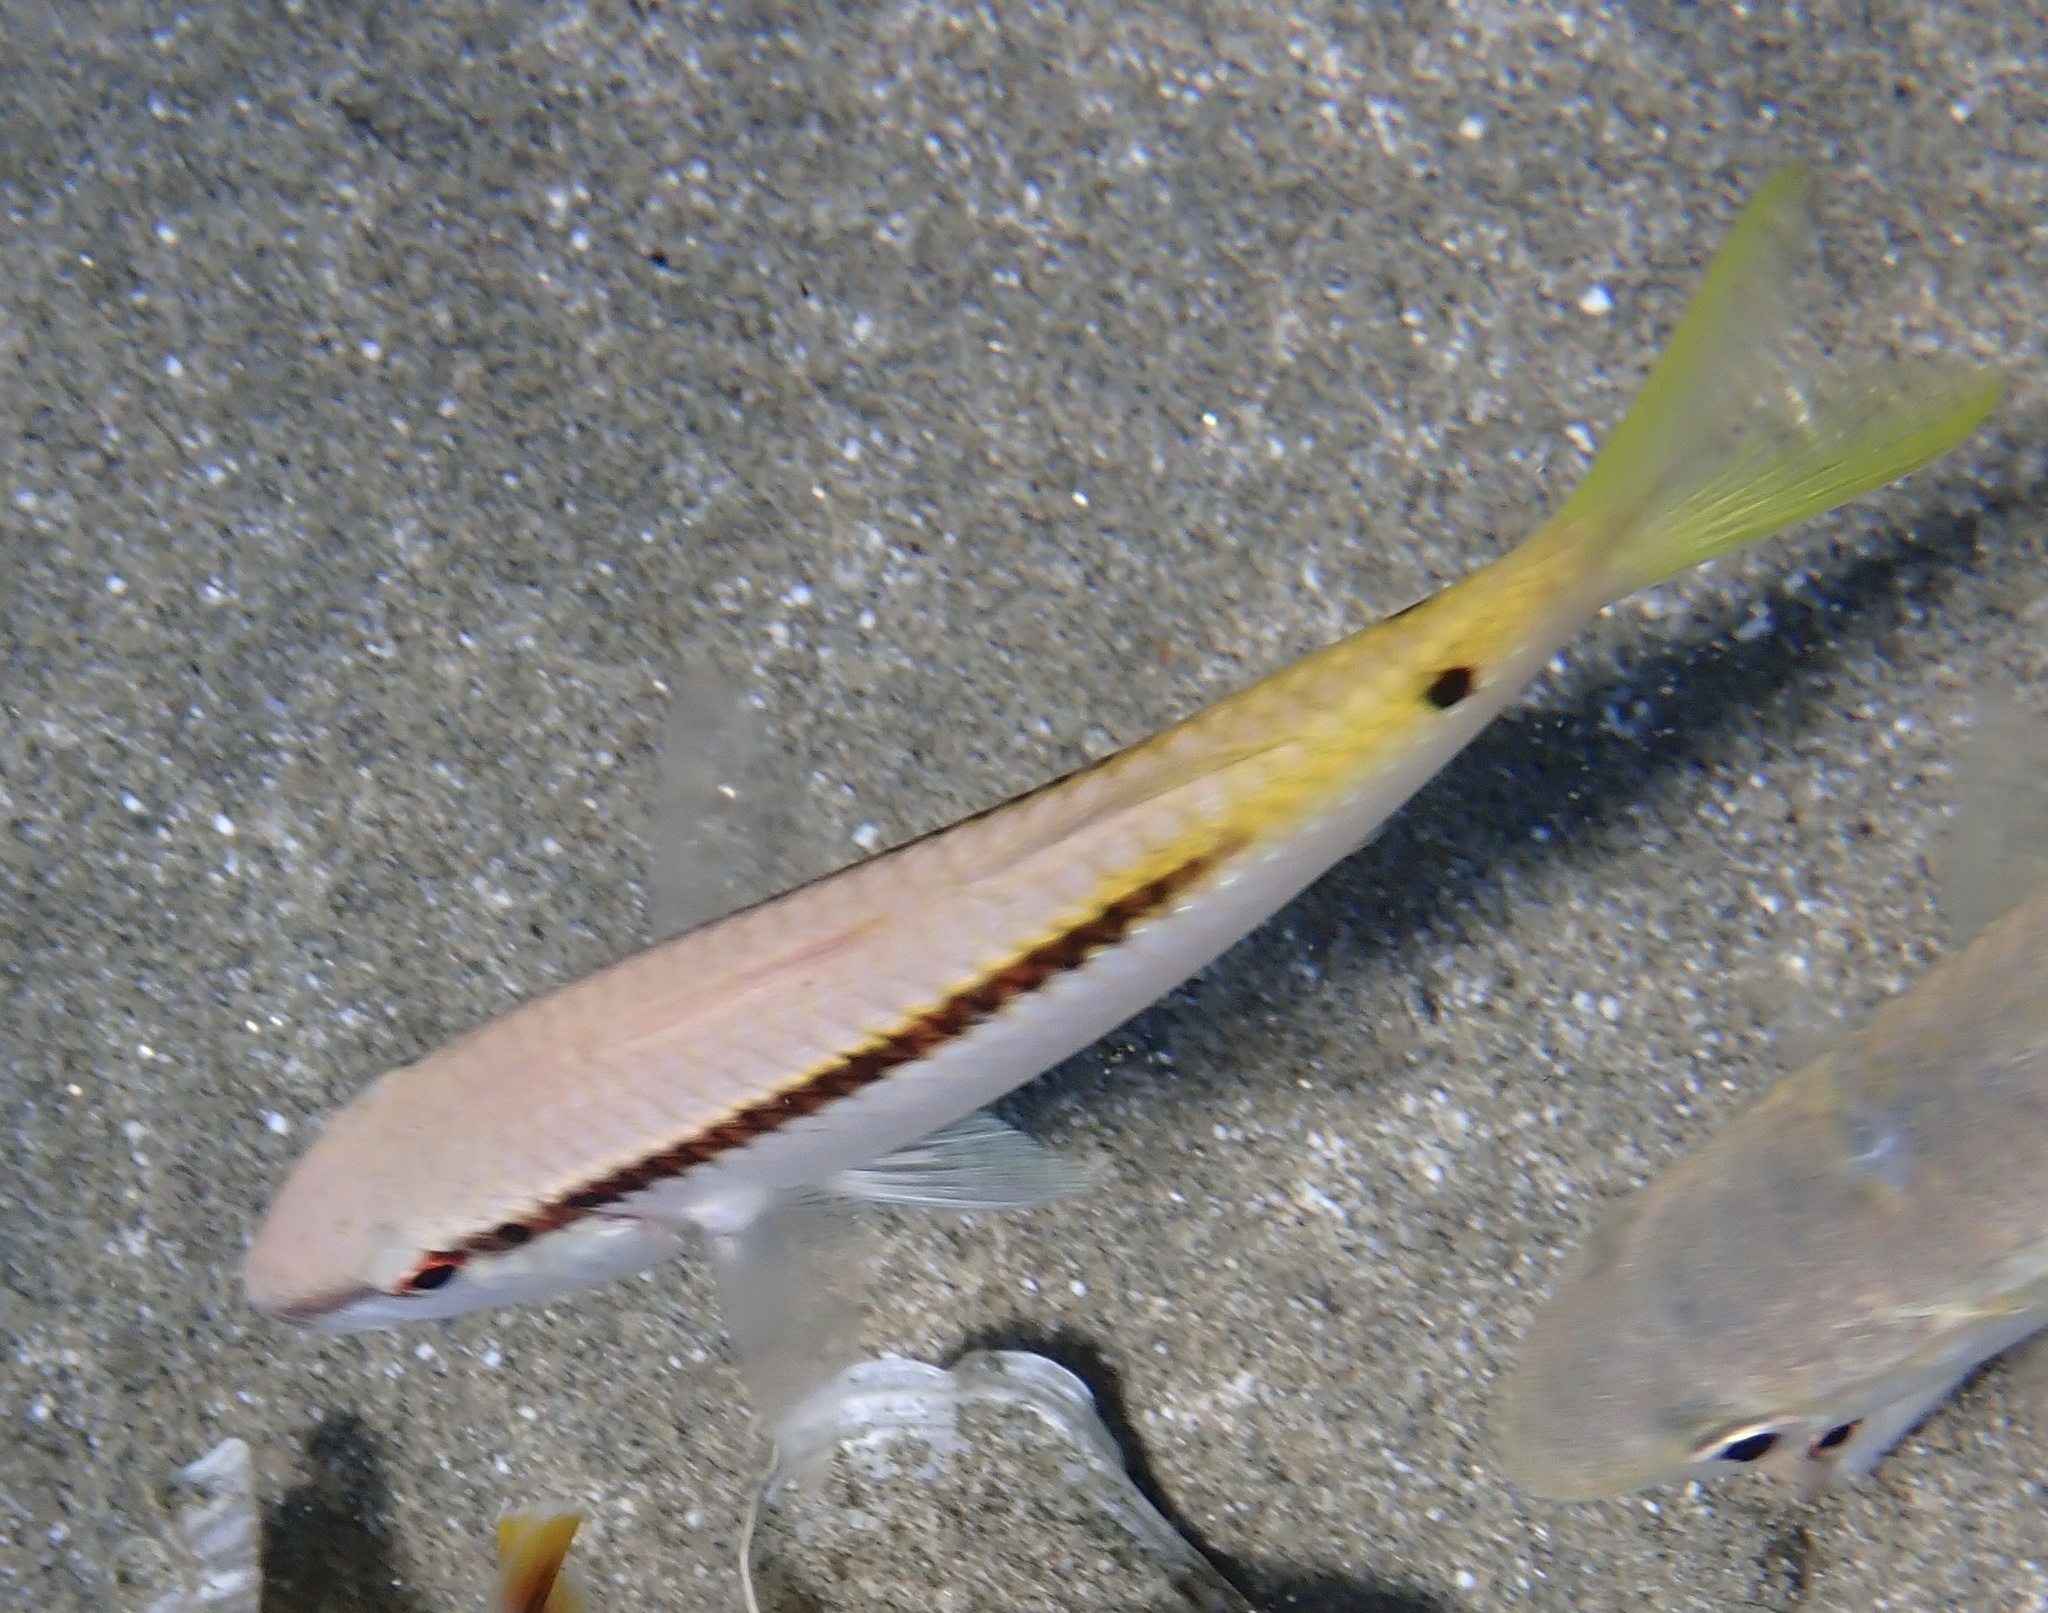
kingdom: Animalia
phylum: Chordata
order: Perciformes
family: Mullidae
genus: Parupeneus
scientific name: Parupeneus forsskali
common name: Red sea goatfish
